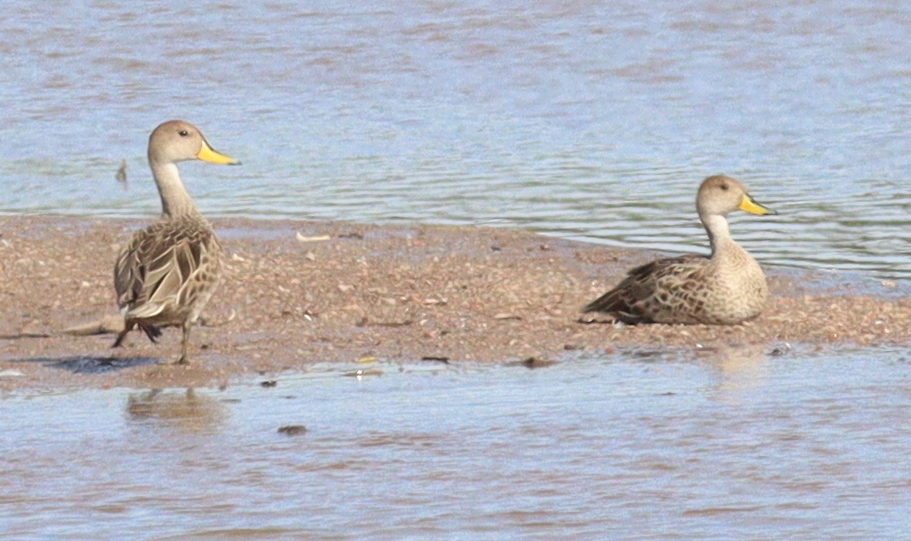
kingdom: Animalia
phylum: Chordata
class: Aves
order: Anseriformes
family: Anatidae
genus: Anas
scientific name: Anas georgica
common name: Yellow-billed pintail
